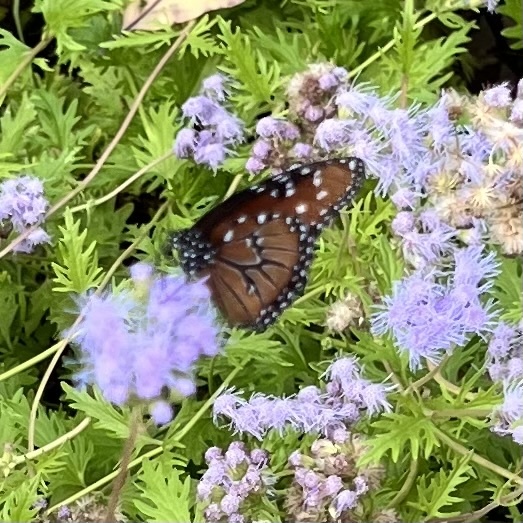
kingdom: Animalia
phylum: Arthropoda
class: Insecta
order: Lepidoptera
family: Nymphalidae
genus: Danaus
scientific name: Danaus gilippus
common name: Queen
